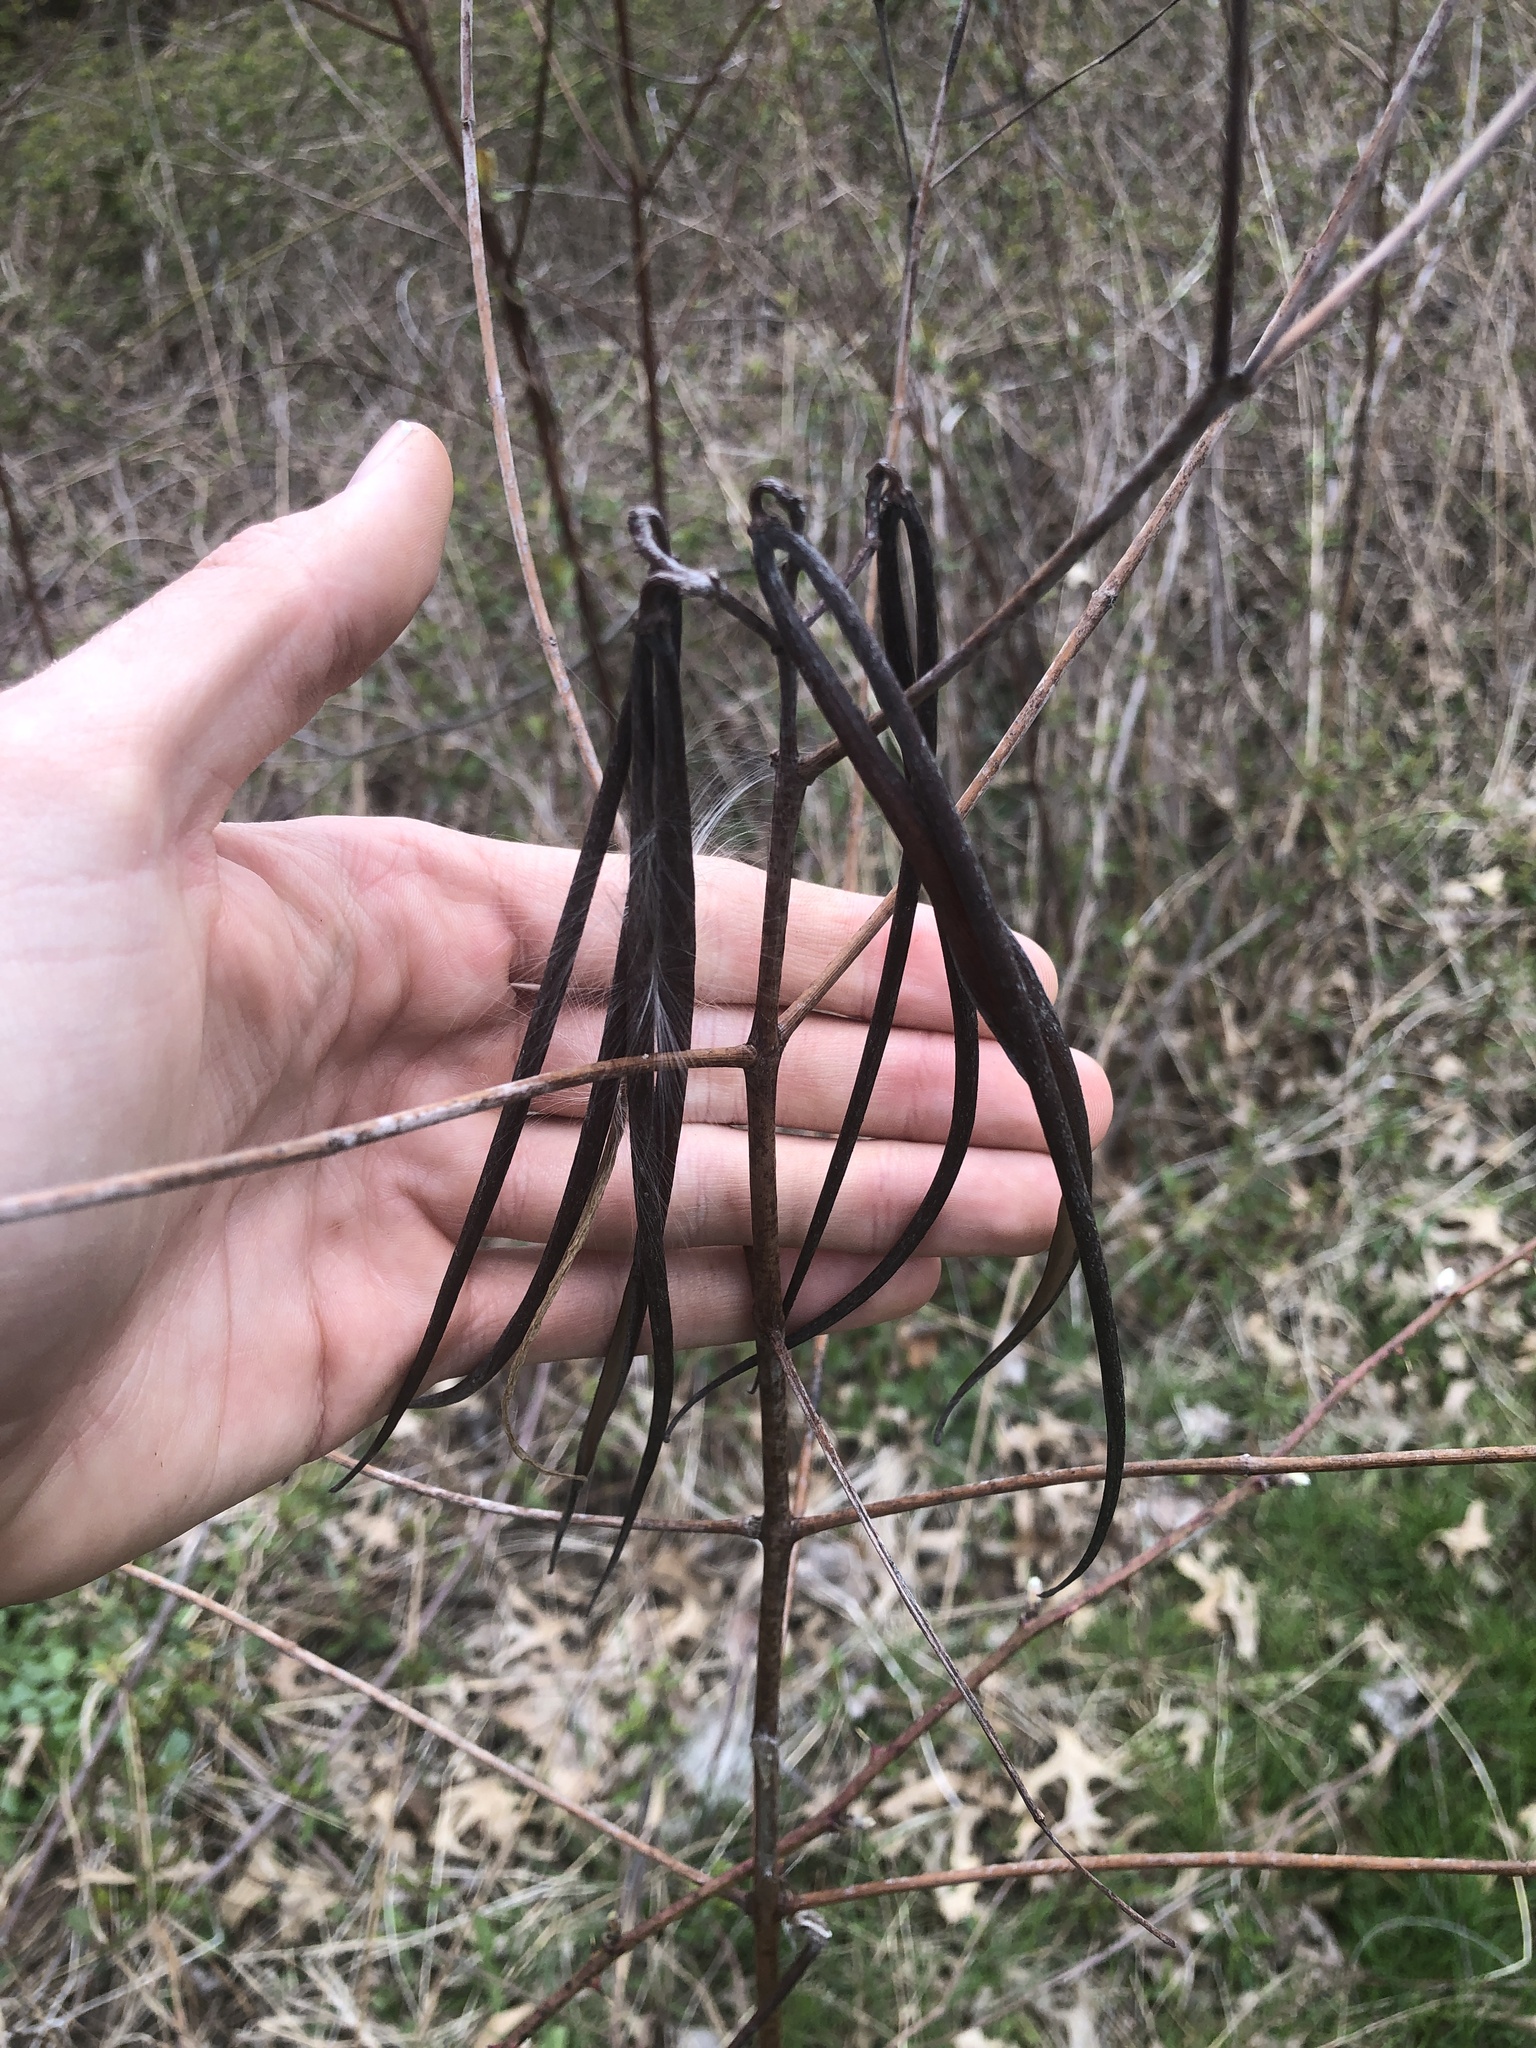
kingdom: Plantae
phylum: Tracheophyta
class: Magnoliopsida
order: Gentianales
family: Apocynaceae
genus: Apocynum
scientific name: Apocynum cannabinum
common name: Hemp dogbane
